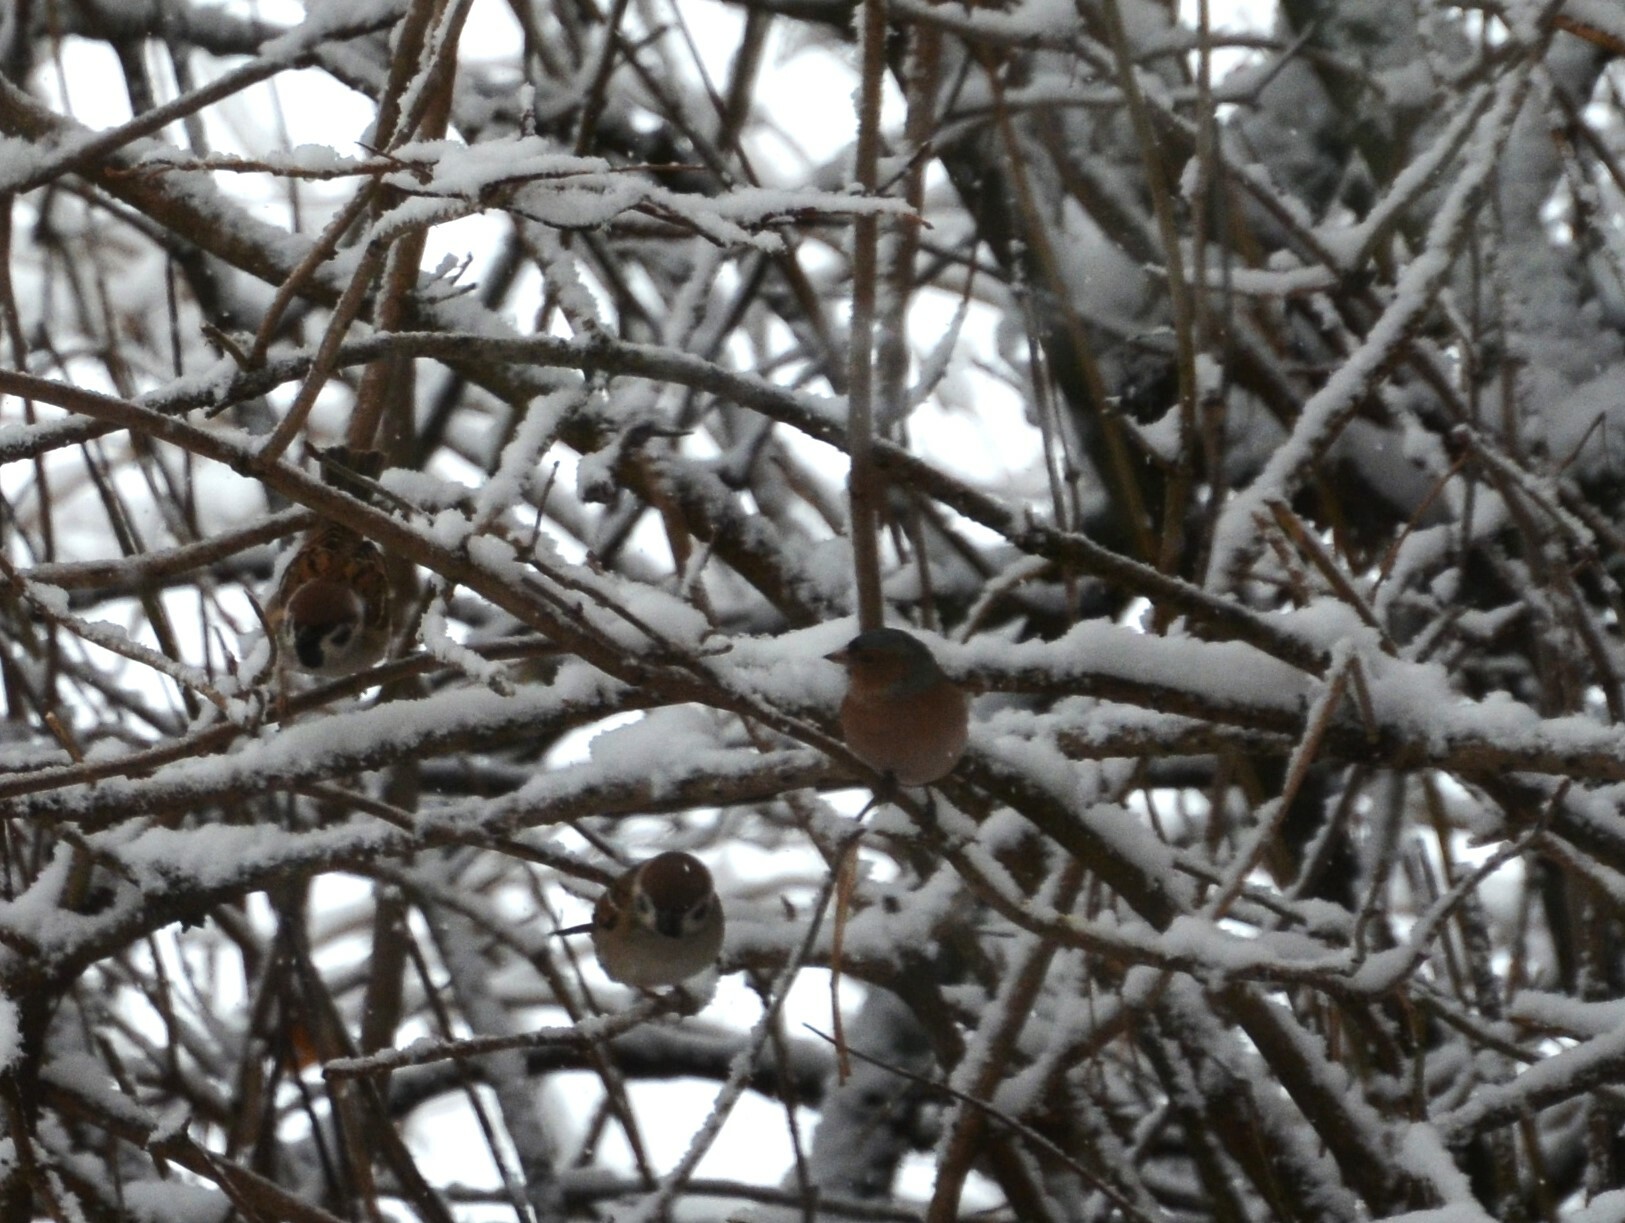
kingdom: Animalia
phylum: Chordata
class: Aves
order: Passeriformes
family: Passeridae
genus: Passer
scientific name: Passer montanus
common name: Eurasian tree sparrow
